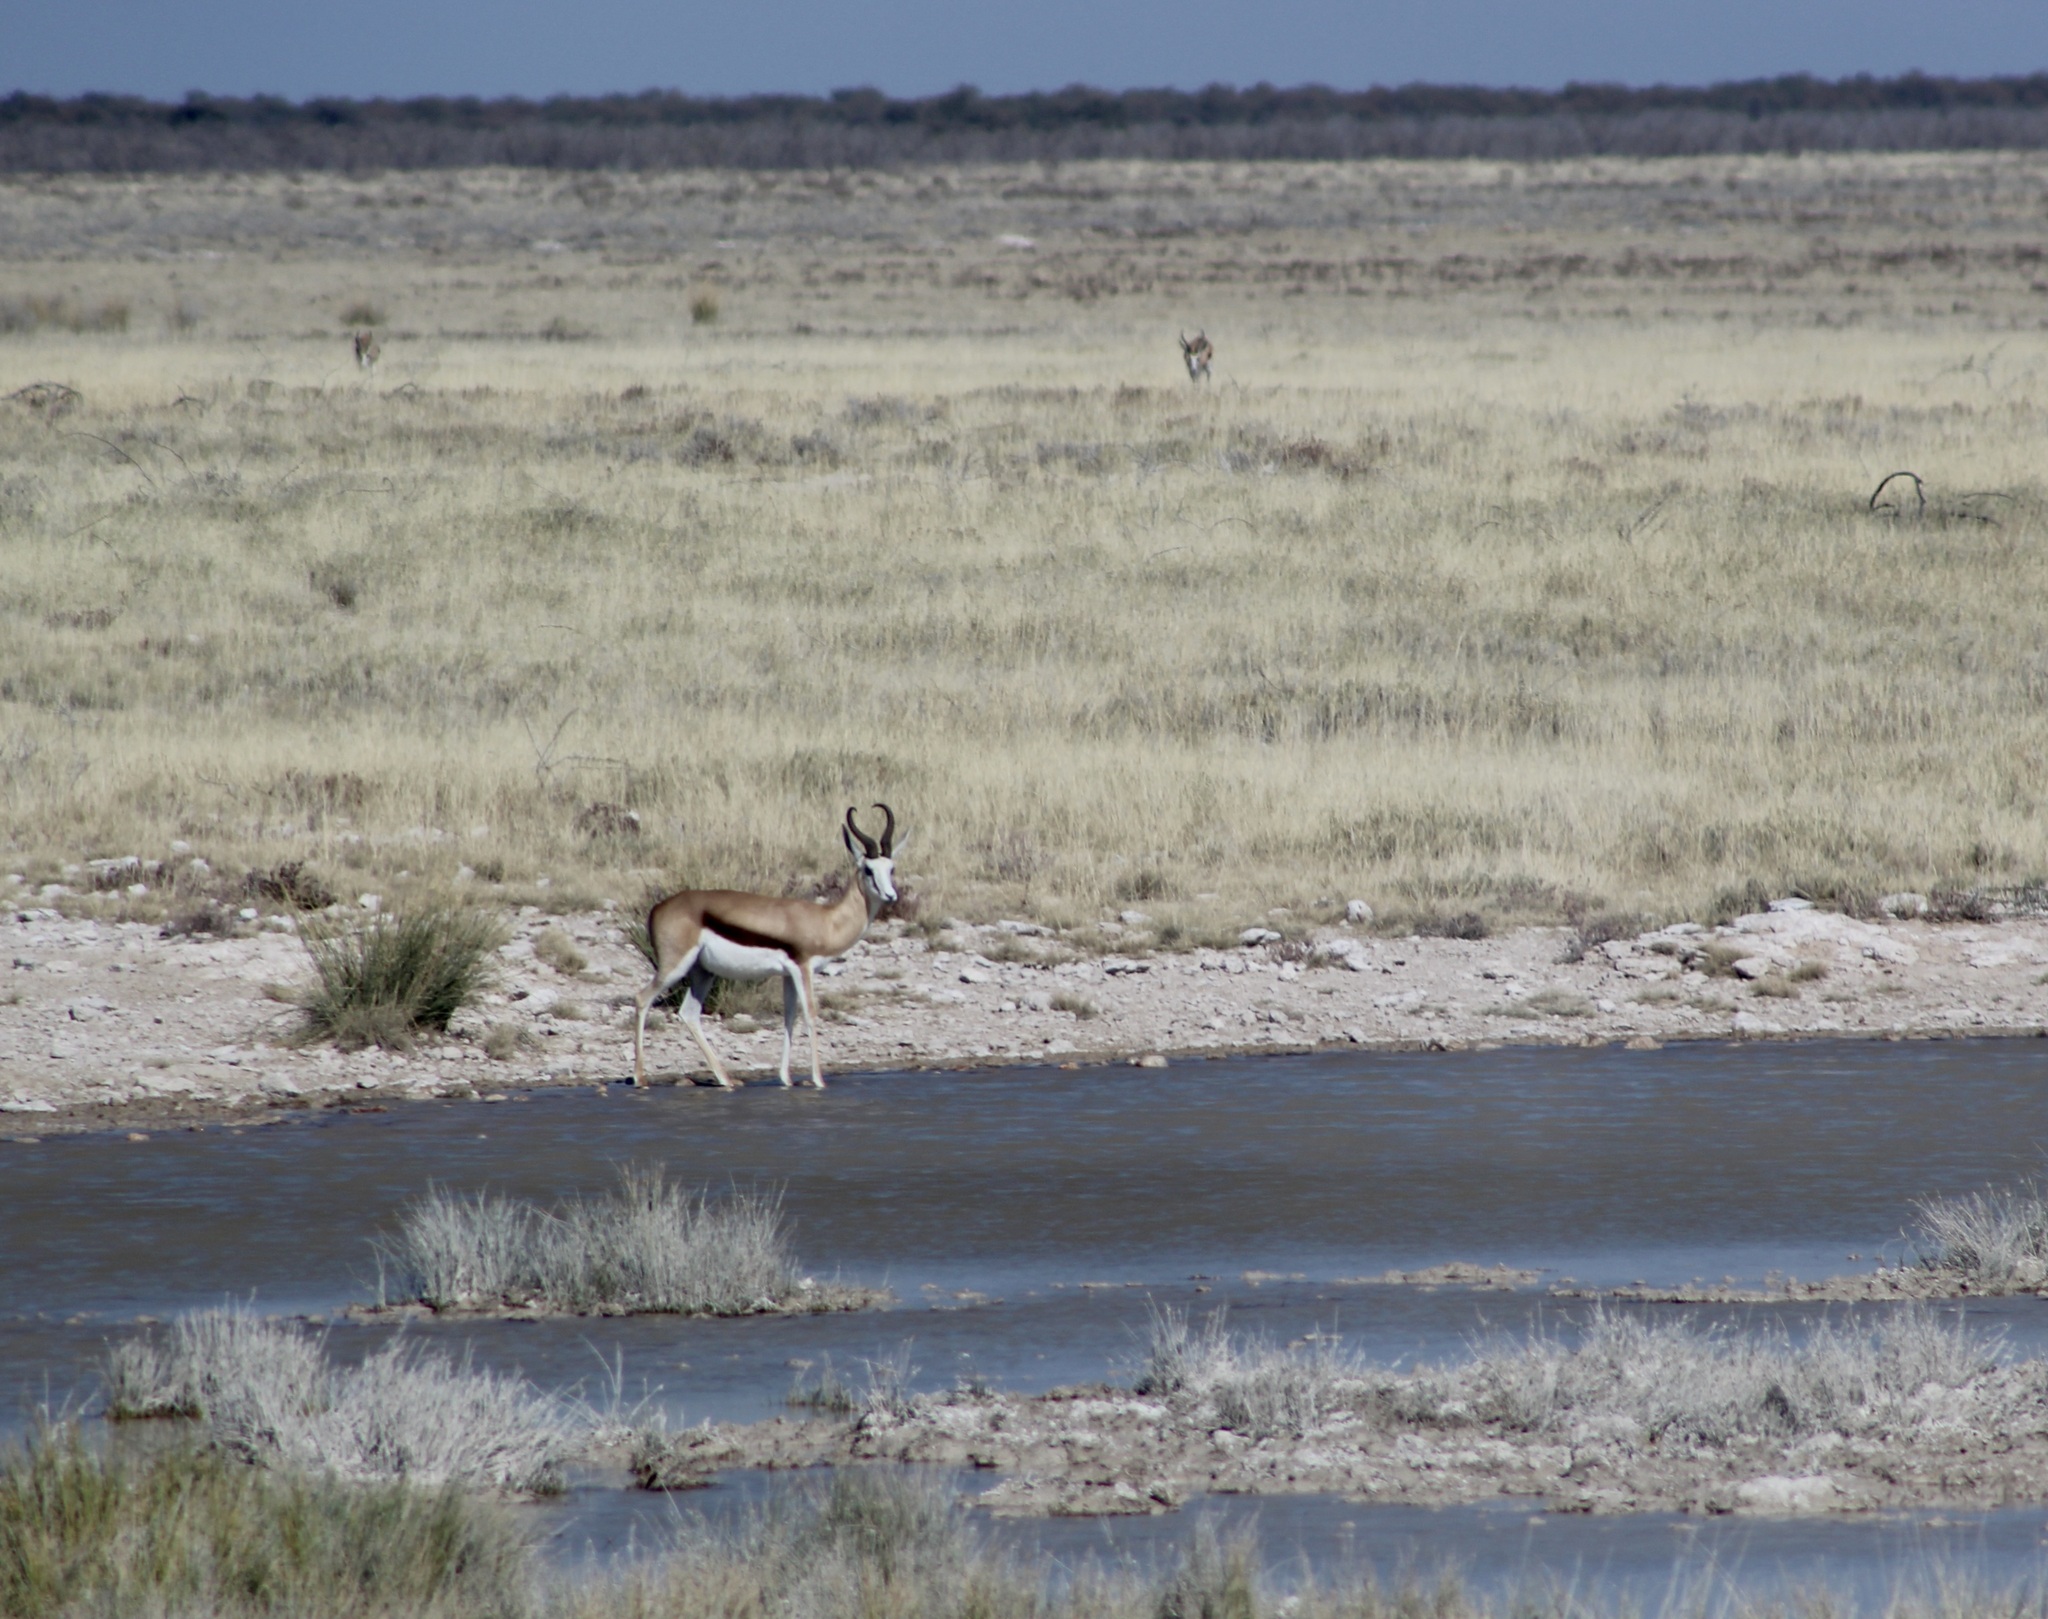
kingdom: Animalia
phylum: Chordata
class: Mammalia
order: Artiodactyla
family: Bovidae
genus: Antidorcas
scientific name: Antidorcas marsupialis
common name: Springbok
